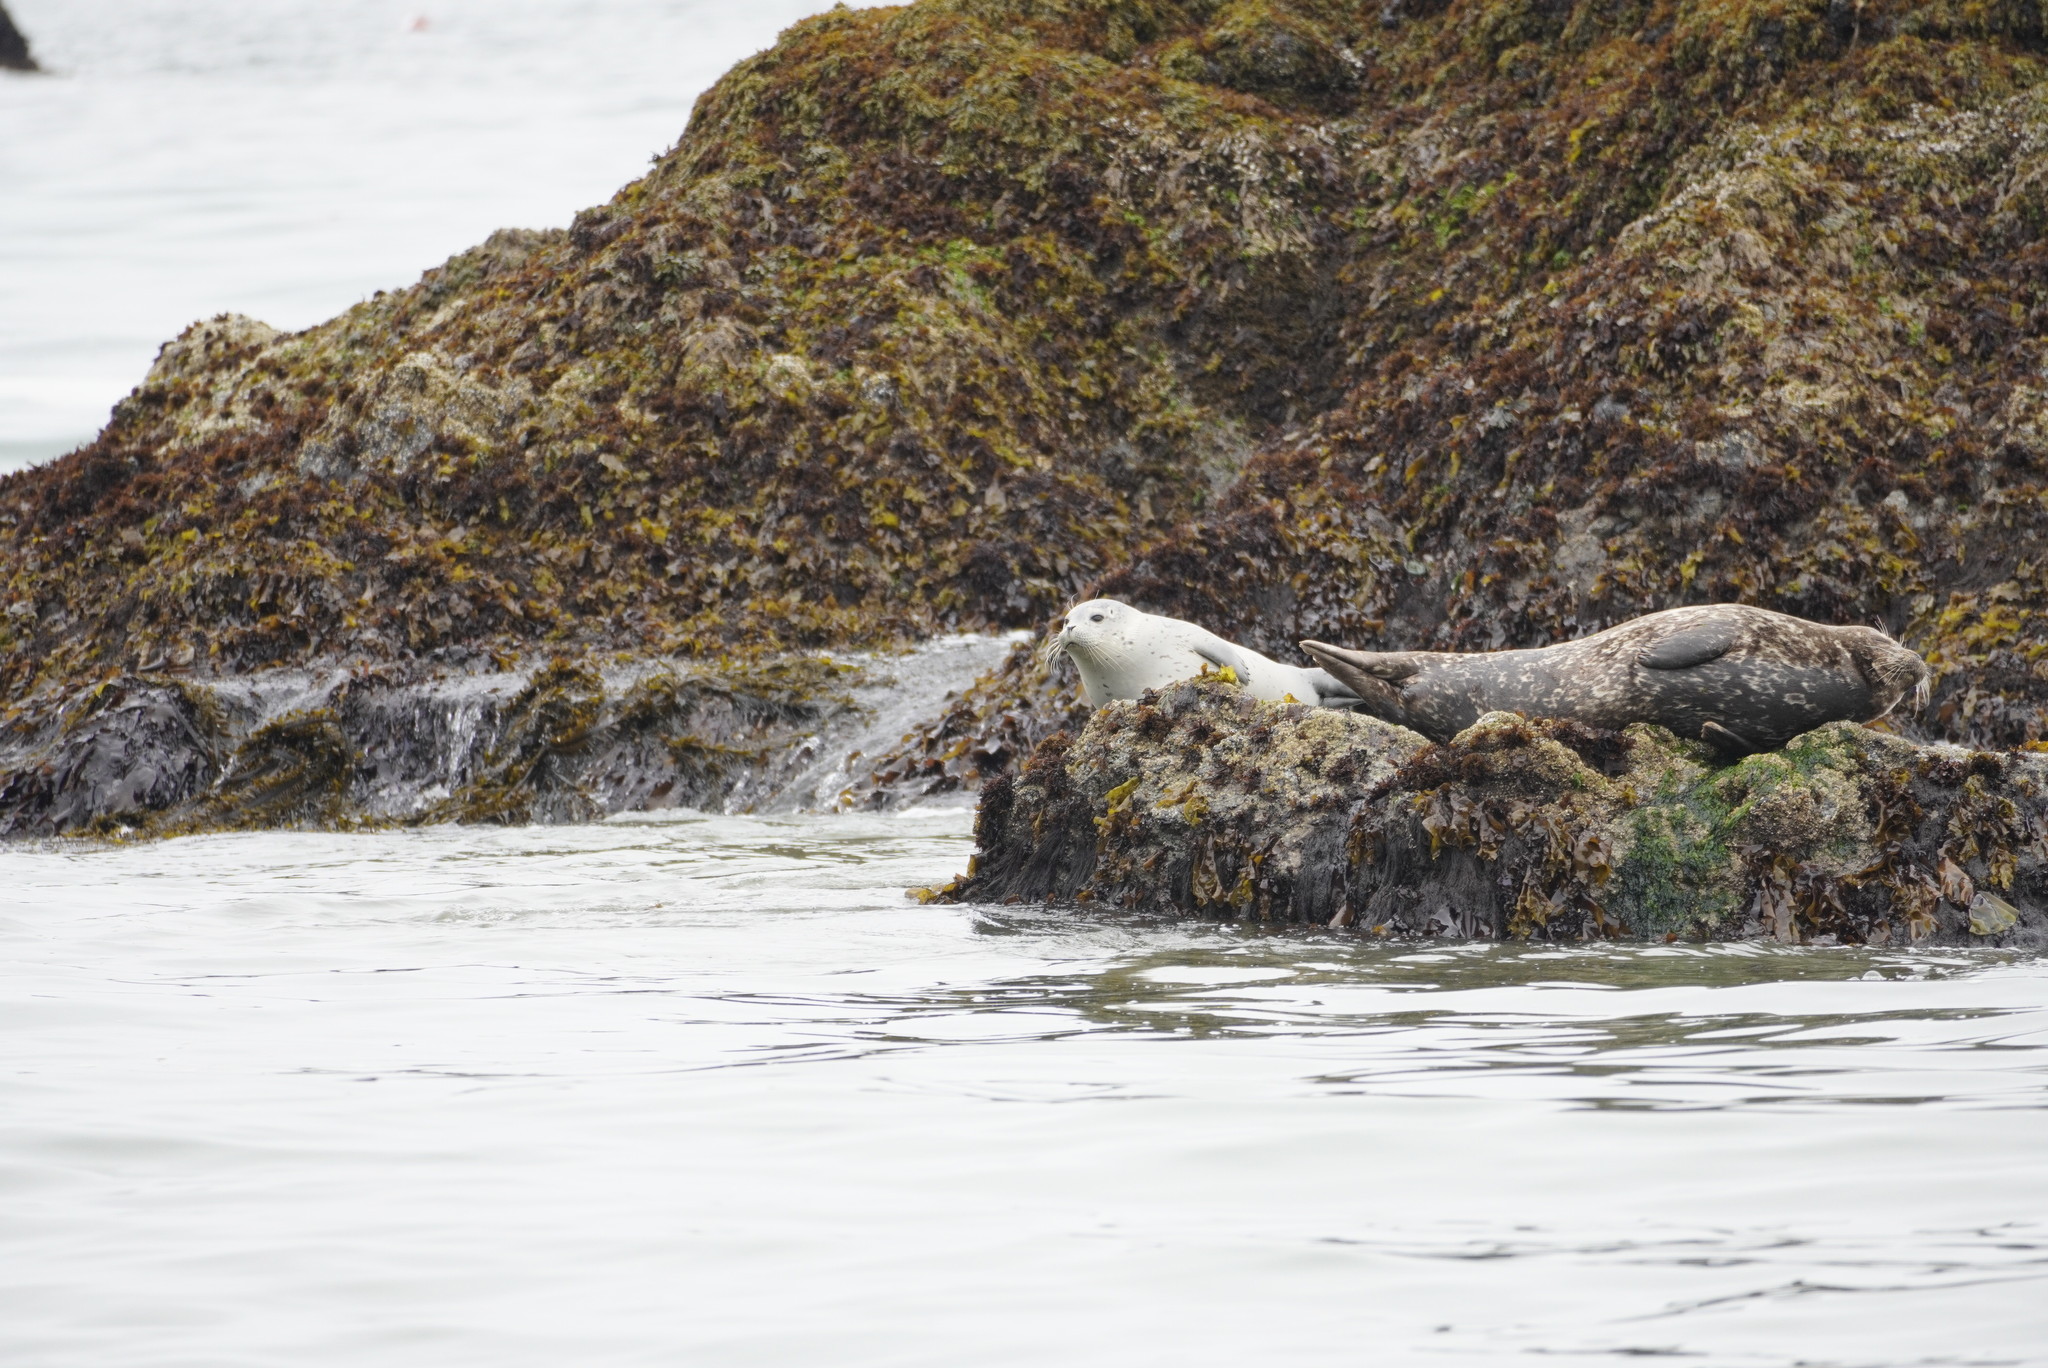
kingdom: Animalia
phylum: Chordata
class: Mammalia
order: Carnivora
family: Phocidae
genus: Phoca
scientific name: Phoca vitulina
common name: Harbor seal
